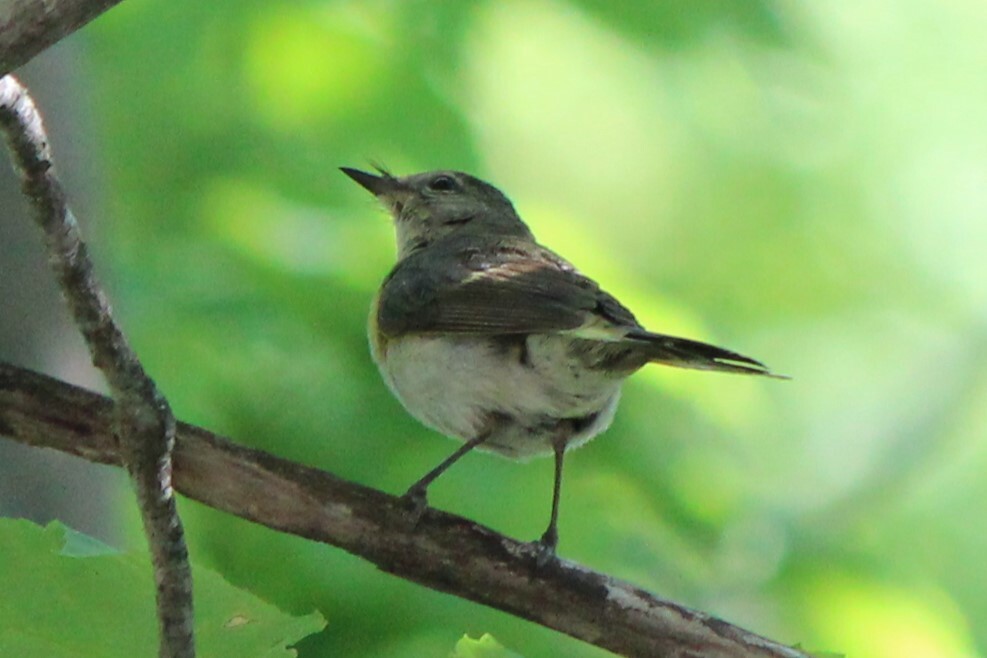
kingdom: Animalia
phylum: Chordata
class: Aves
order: Passeriformes
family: Parulidae
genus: Setophaga
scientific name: Setophaga ruticilla
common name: American redstart
